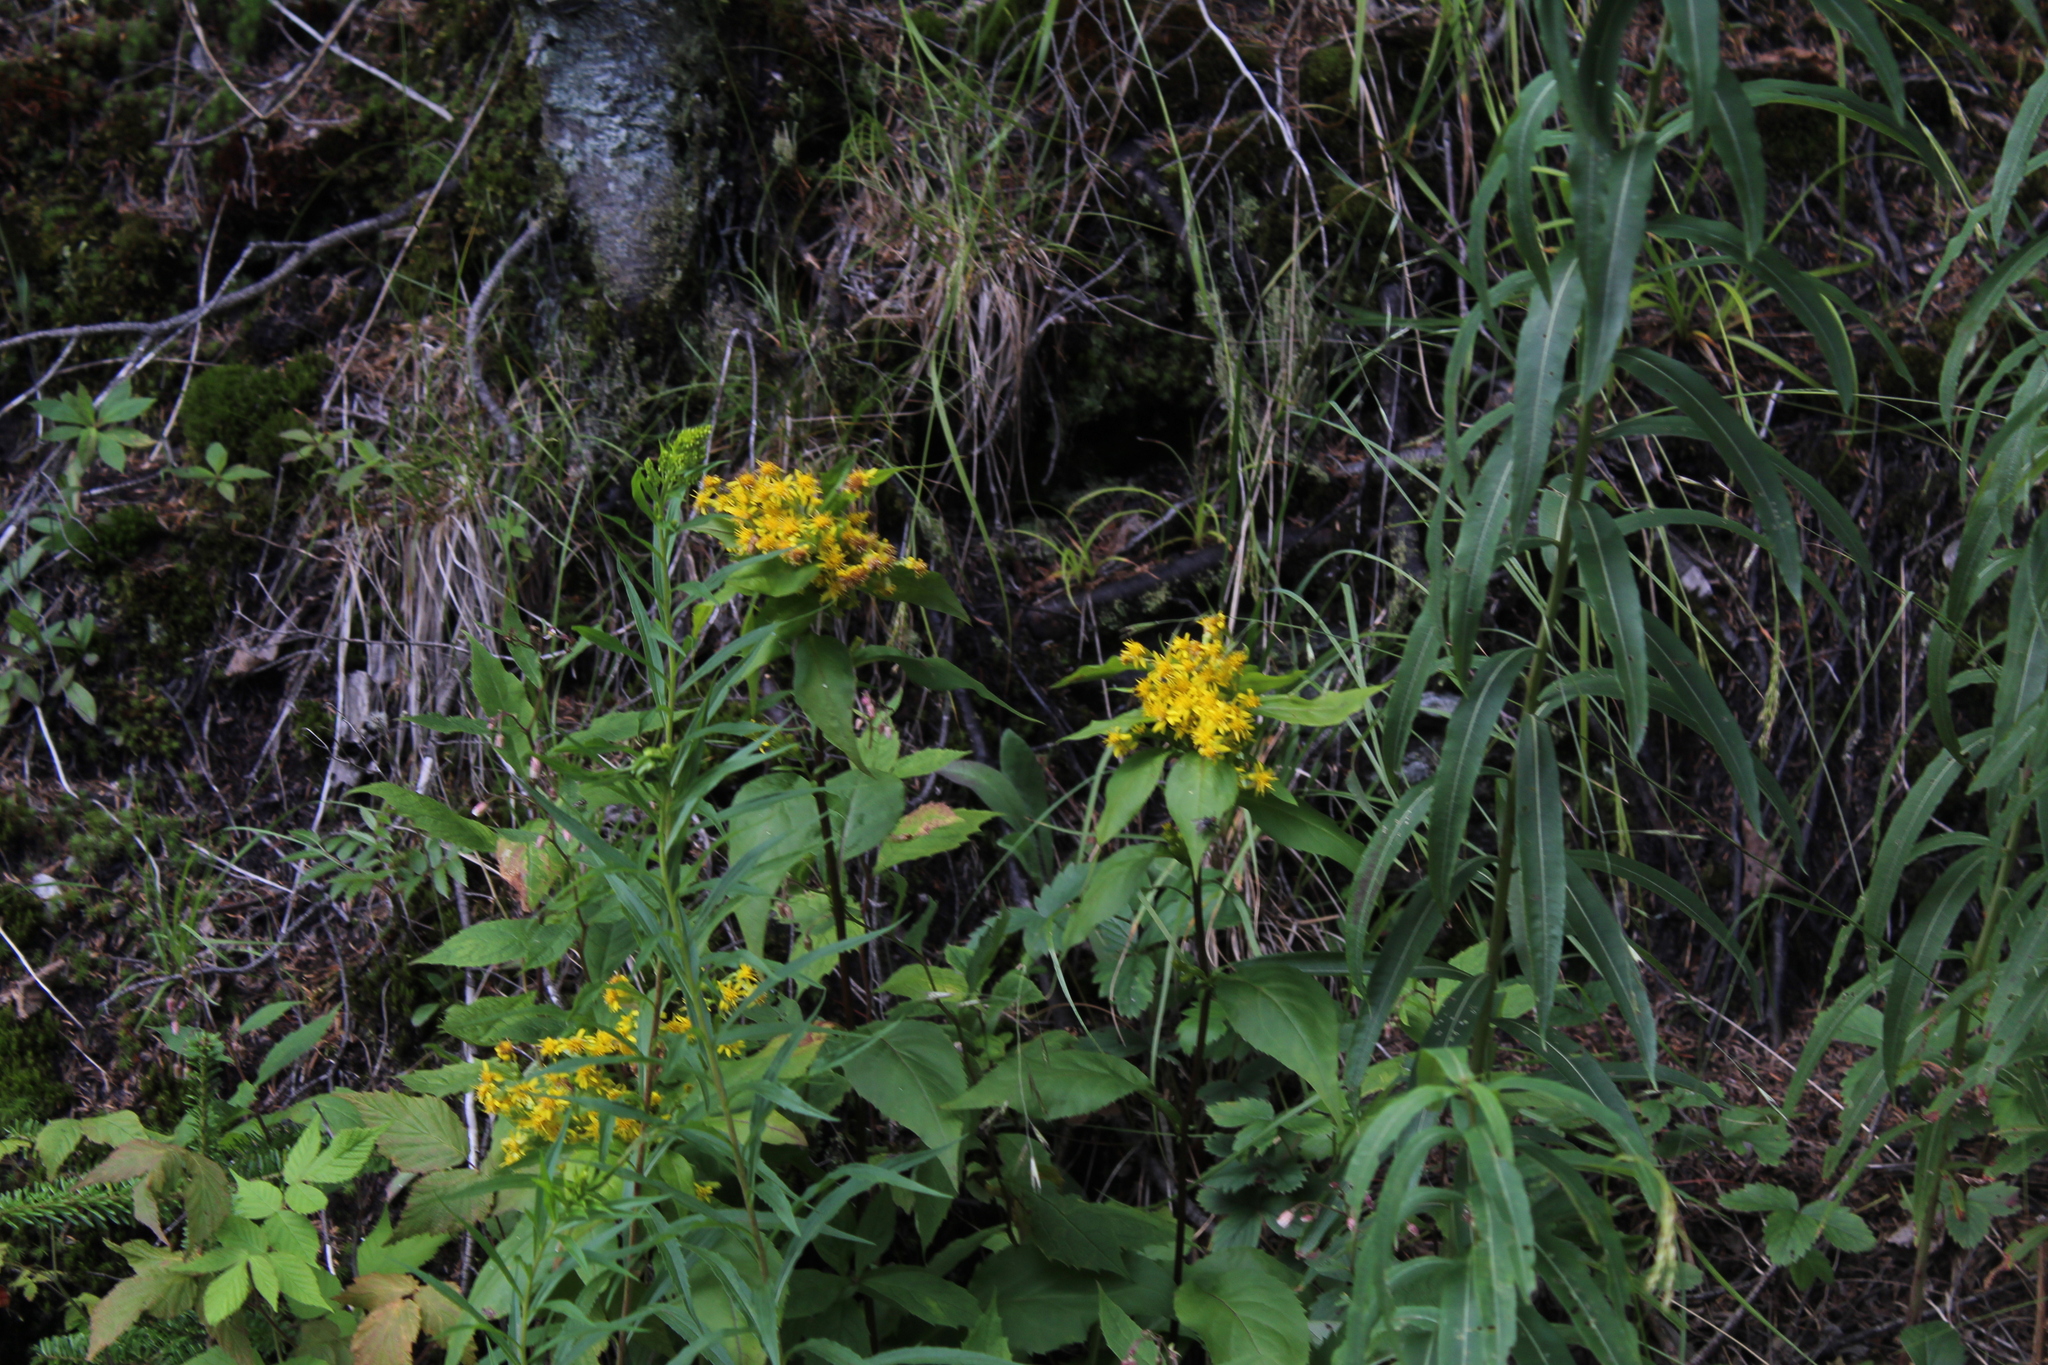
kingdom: Plantae
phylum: Tracheophyta
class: Magnoliopsida
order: Asterales
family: Asteraceae
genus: Solidago
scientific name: Solidago macrophylla
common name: Large-leaved goldenrod
